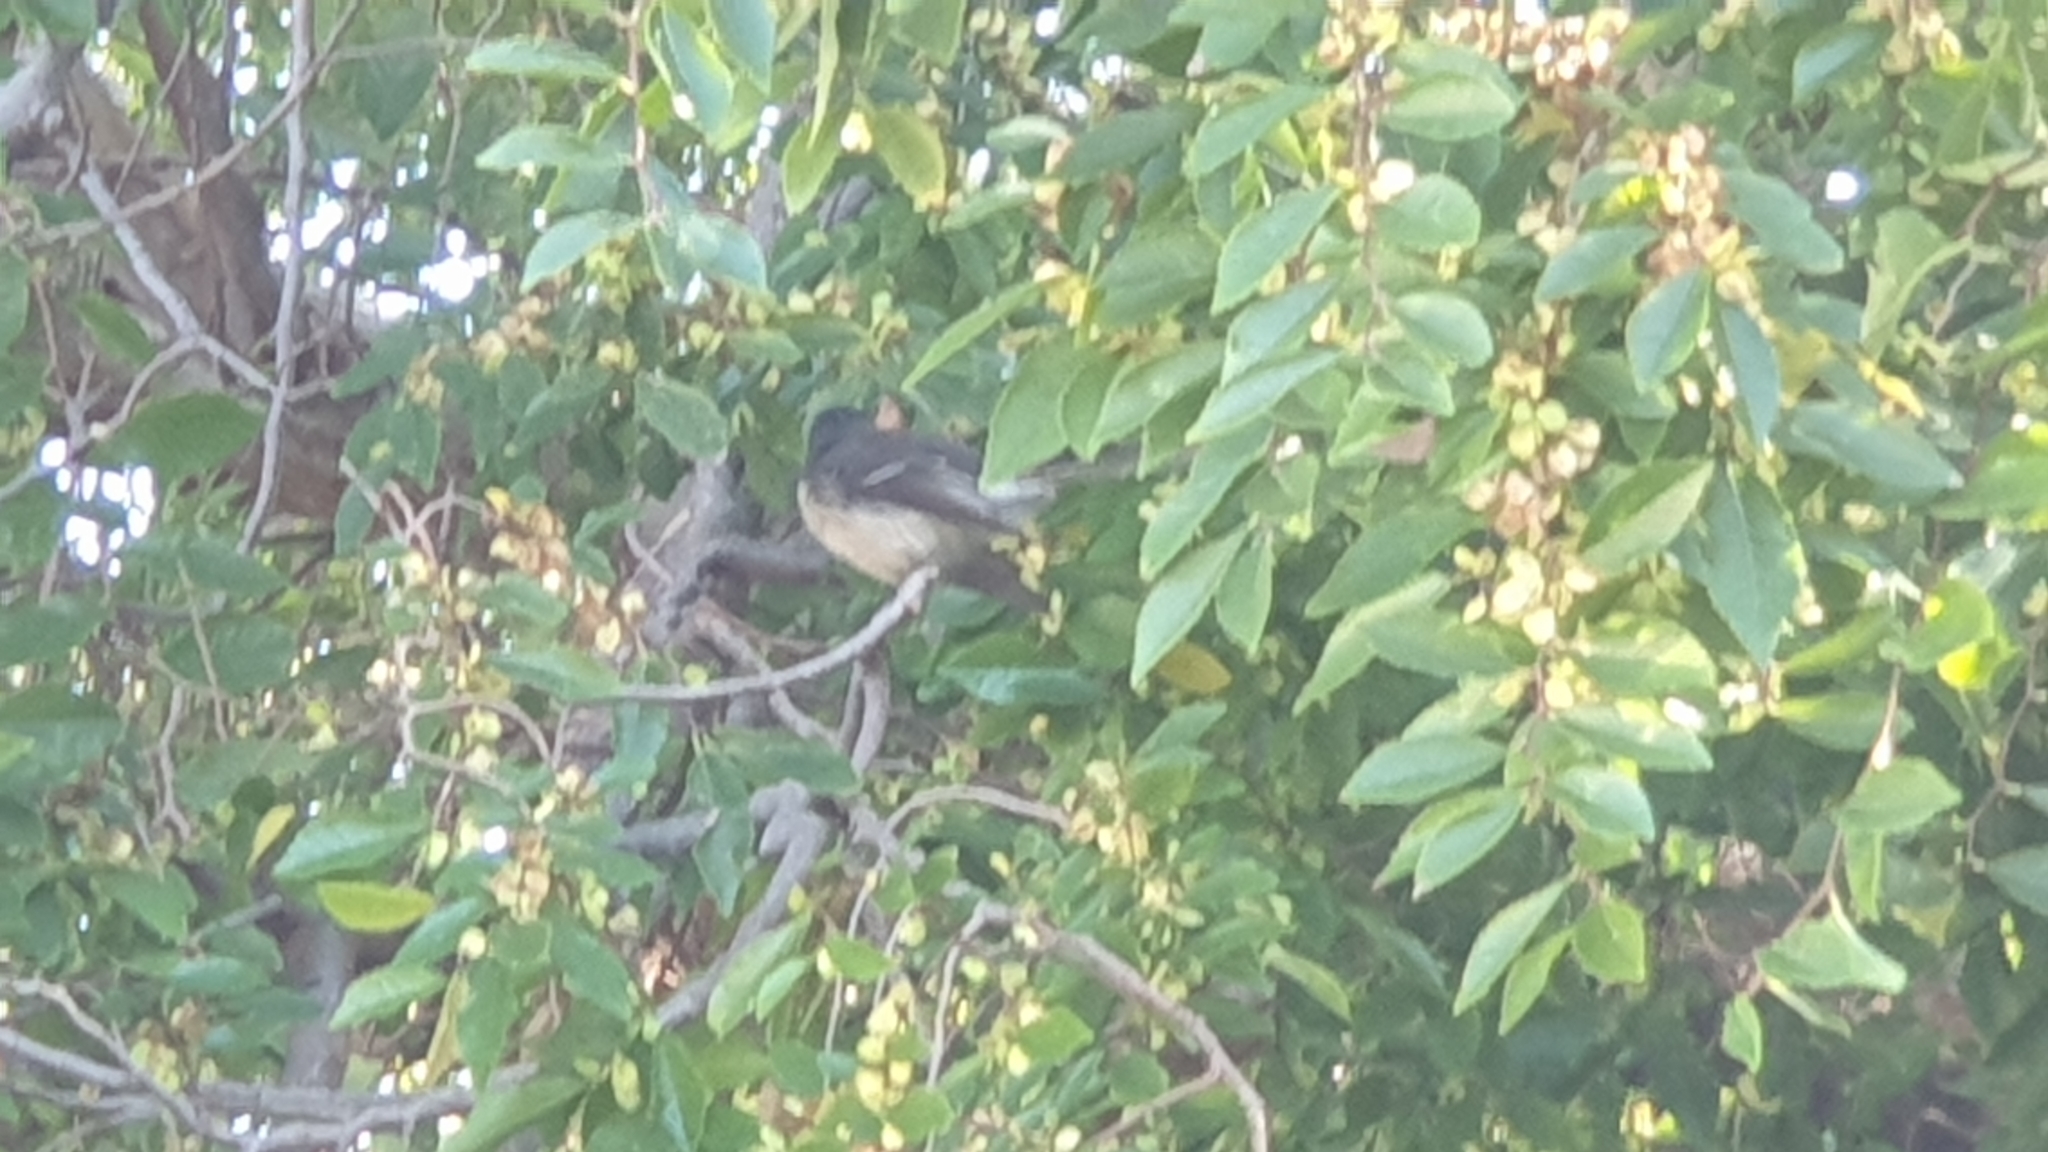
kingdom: Animalia
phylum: Chordata
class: Aves
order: Passeriformes
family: Rhipiduridae
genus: Rhipidura
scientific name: Rhipidura albiscapa
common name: Grey fantail
